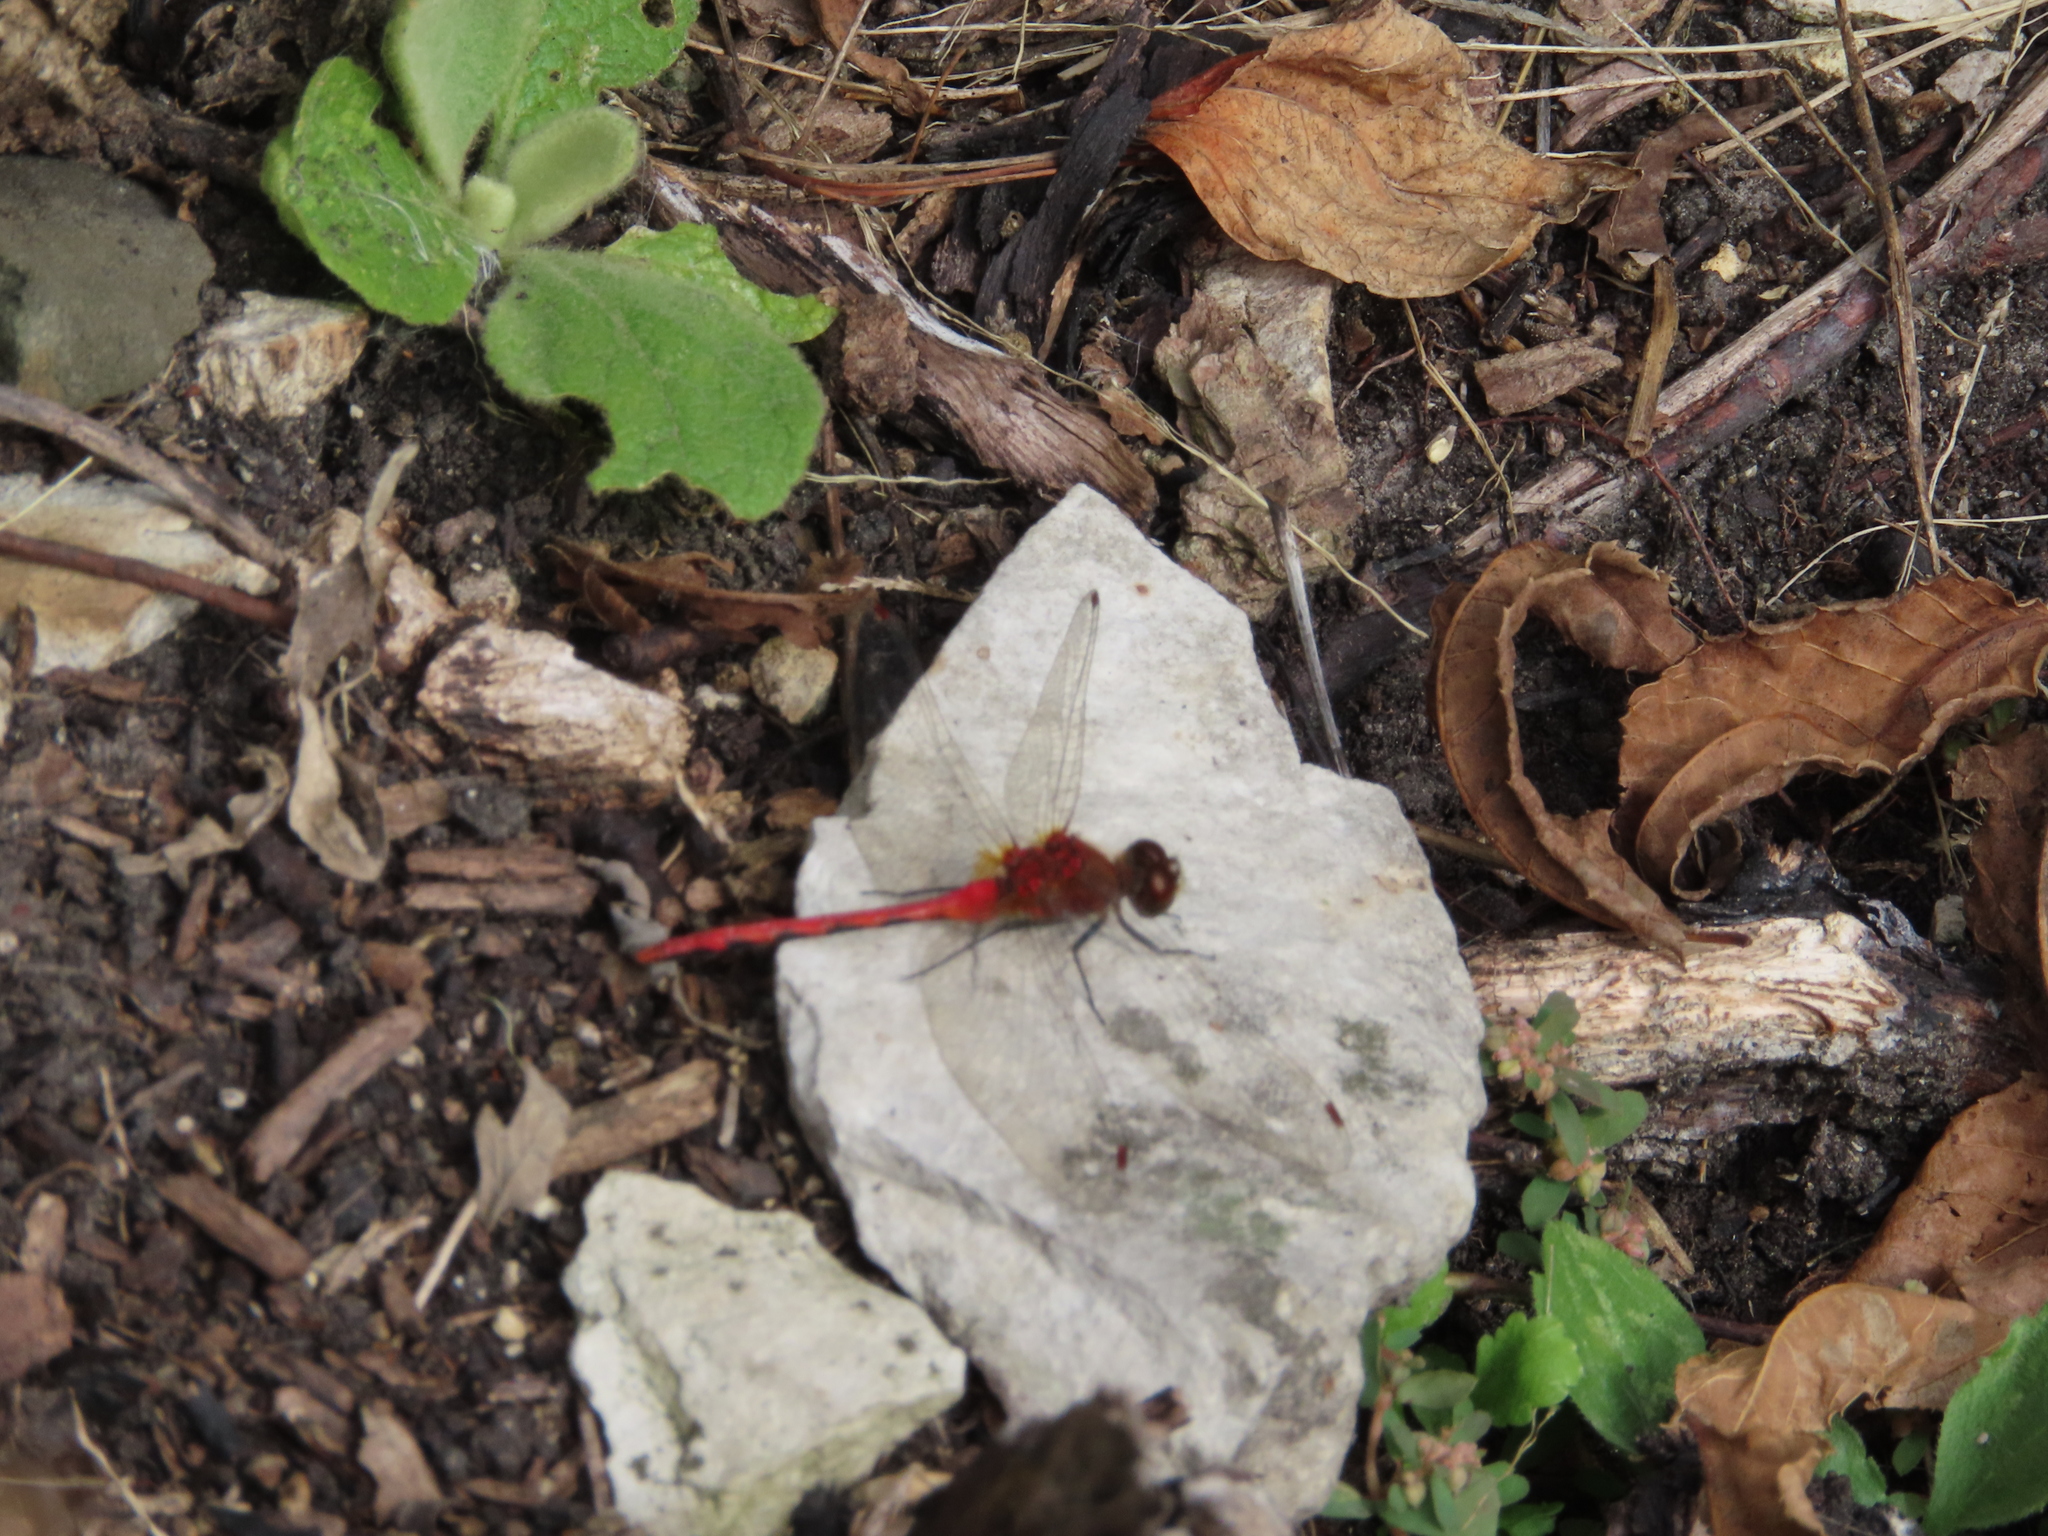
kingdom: Animalia
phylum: Arthropoda
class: Insecta
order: Odonata
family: Libellulidae
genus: Sympetrum
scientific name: Sympetrum obtrusum
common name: White-faced meadowhawk
